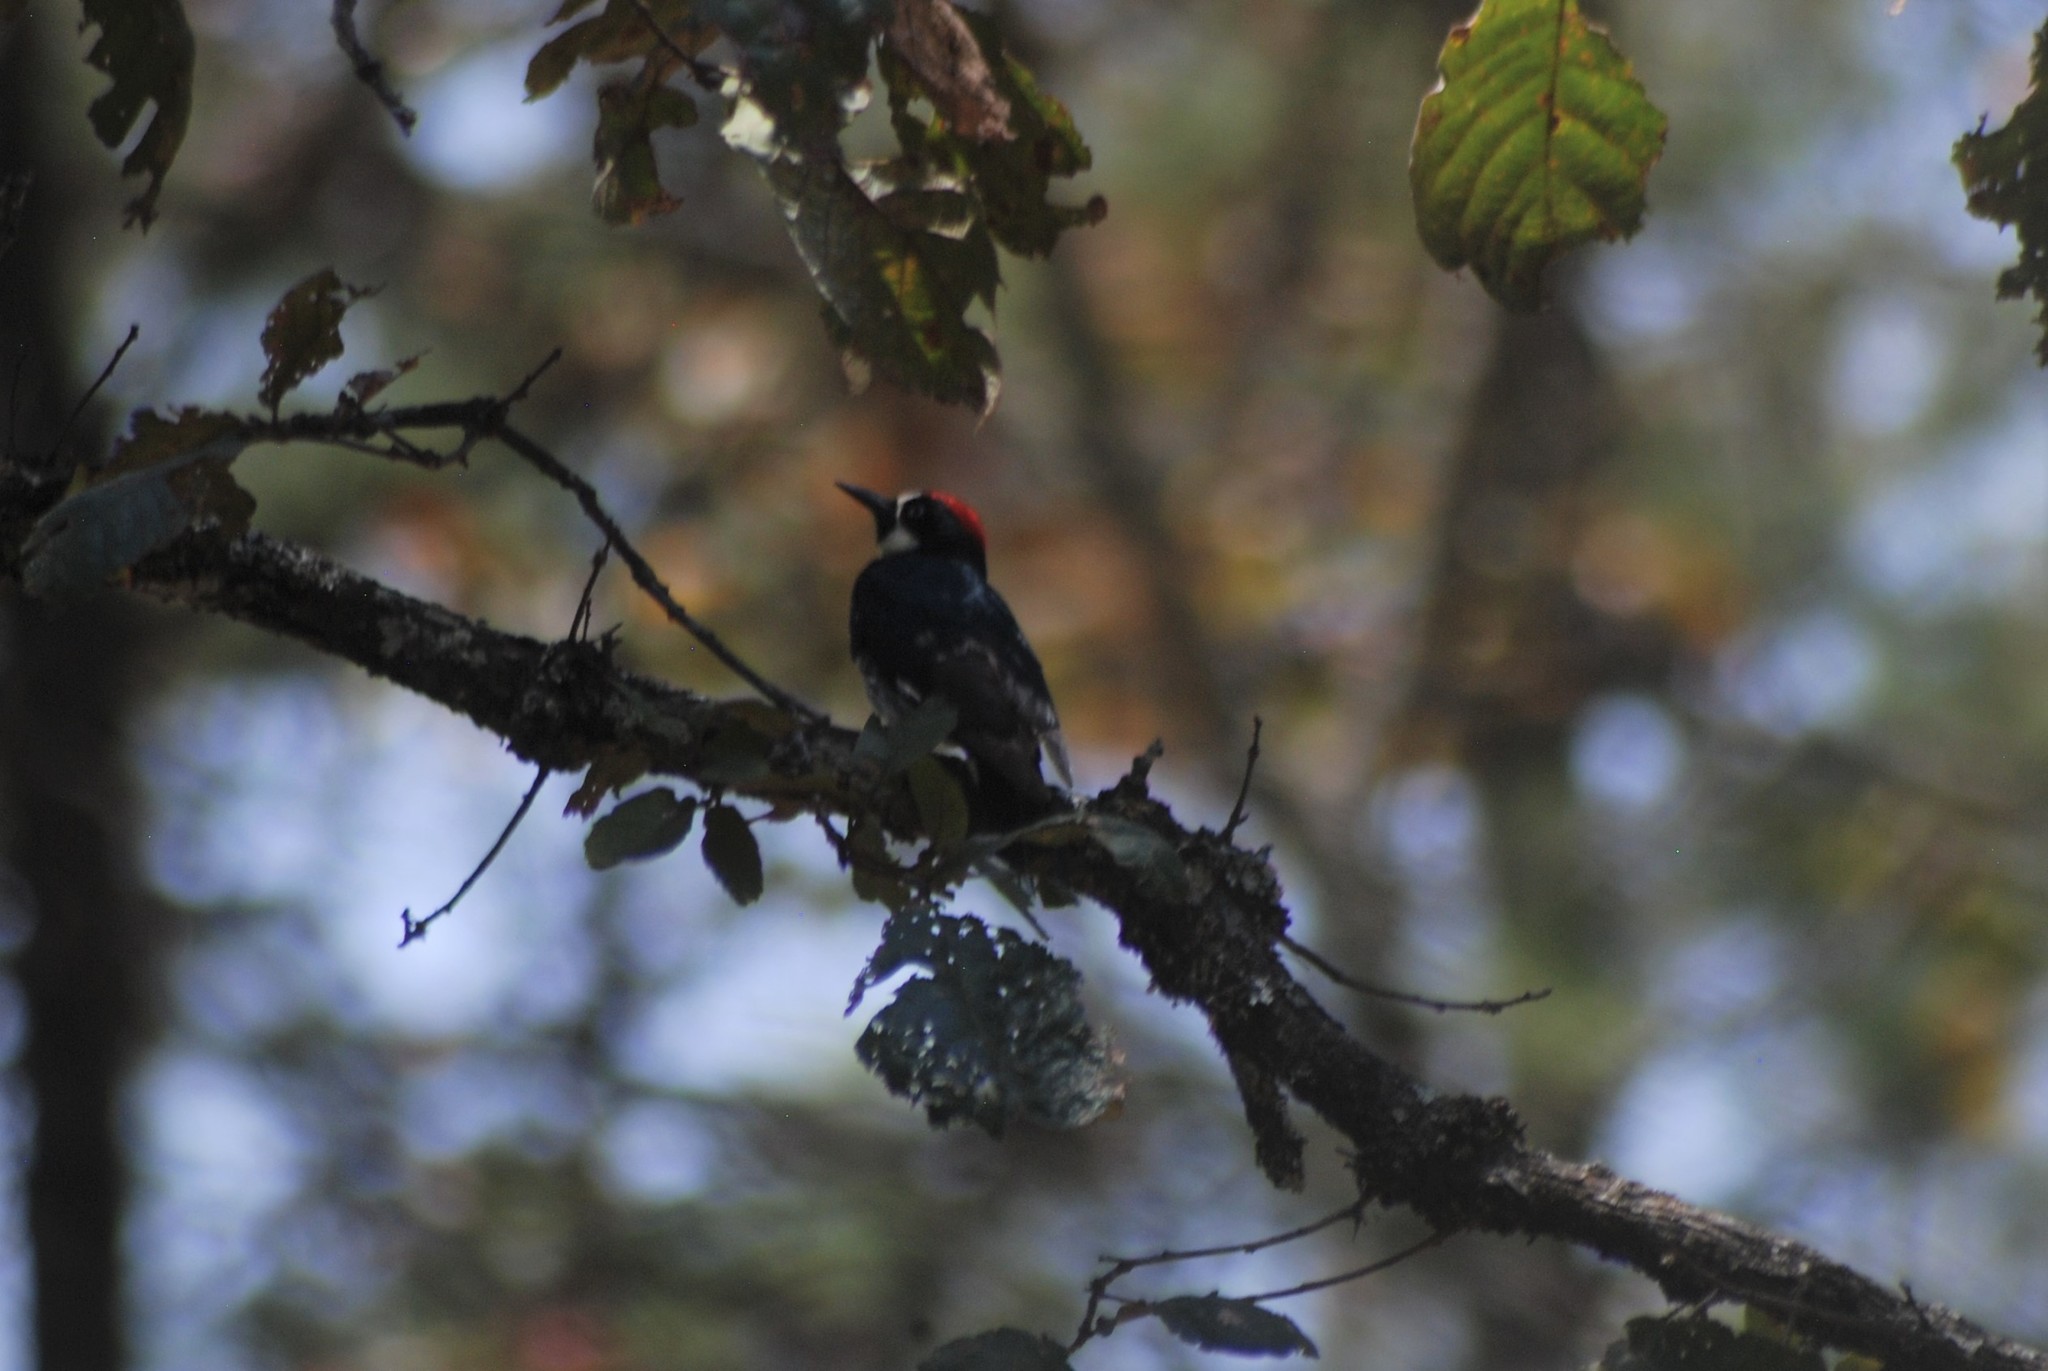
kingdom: Animalia
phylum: Chordata
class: Aves
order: Piciformes
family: Picidae
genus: Melanerpes
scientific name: Melanerpes formicivorus
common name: Acorn woodpecker
